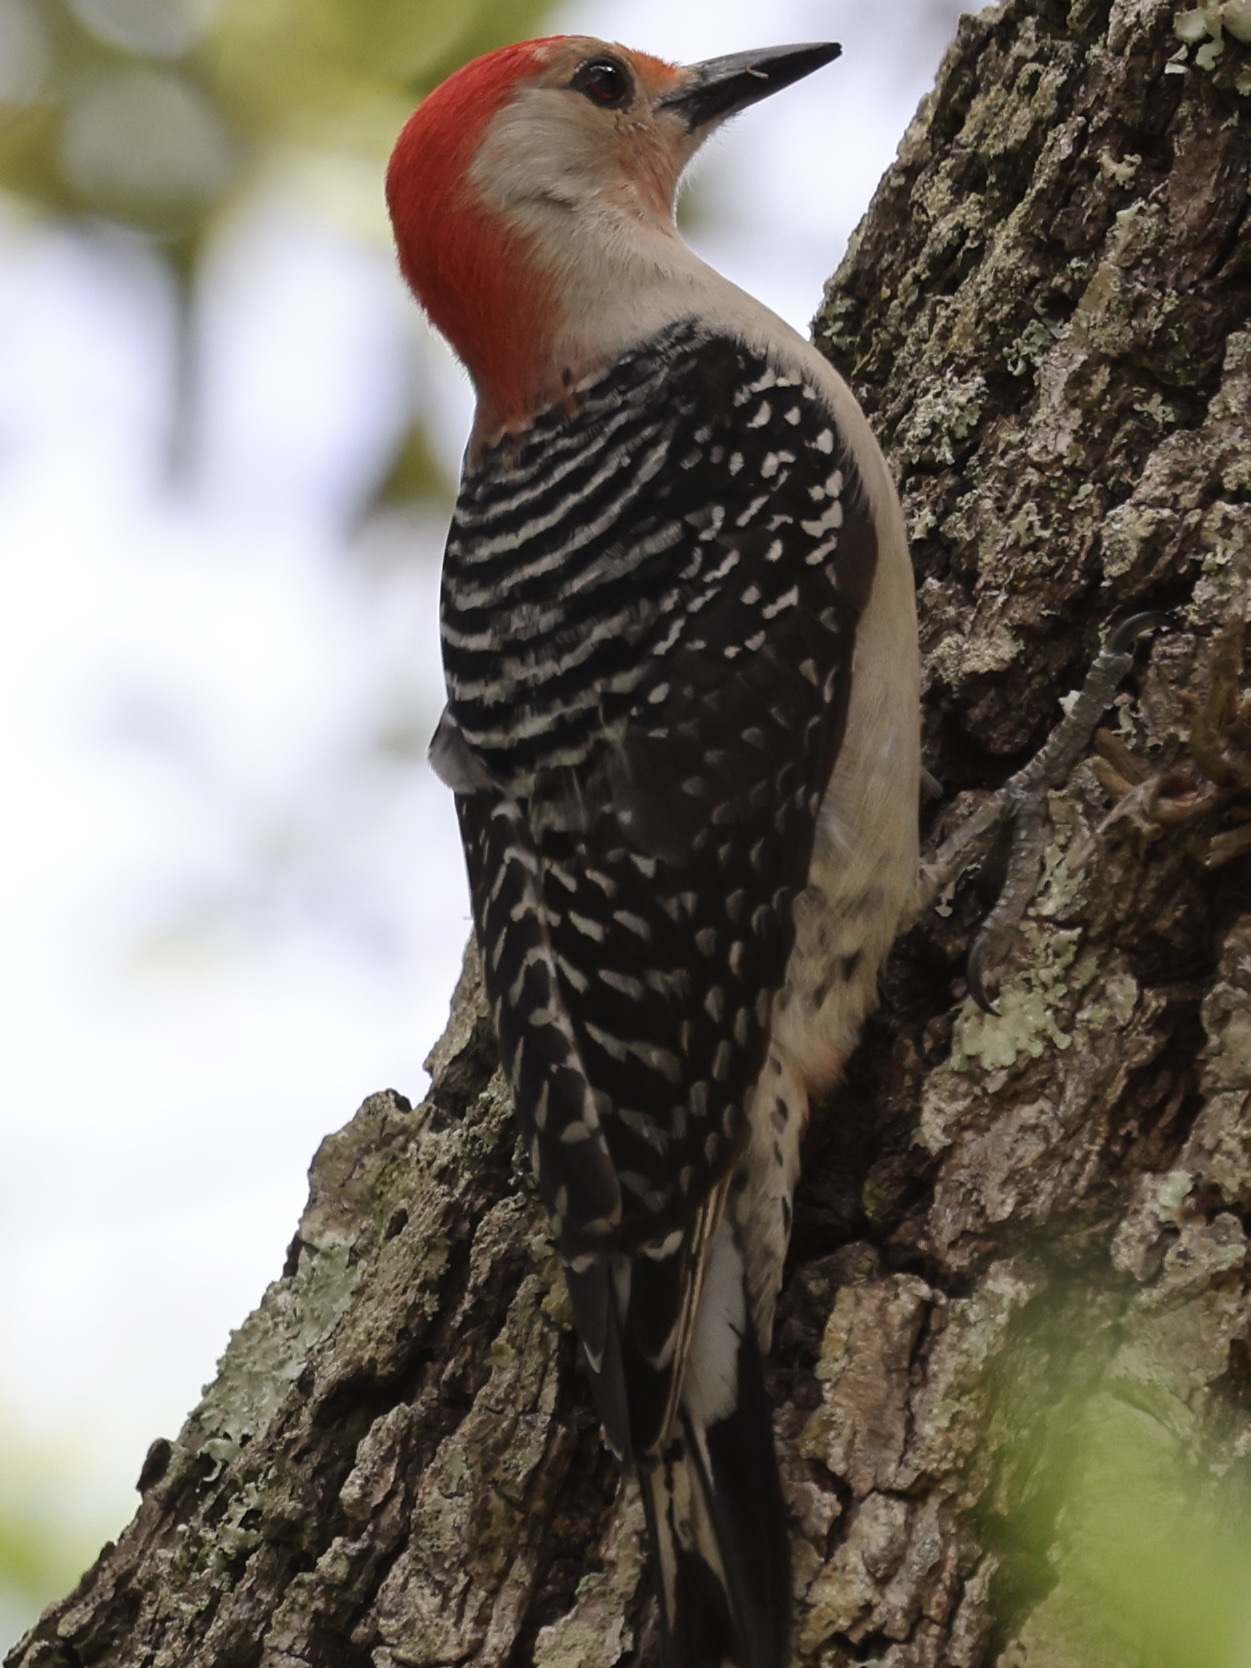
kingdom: Animalia
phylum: Chordata
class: Aves
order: Piciformes
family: Picidae
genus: Melanerpes
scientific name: Melanerpes carolinus
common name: Red-bellied woodpecker
